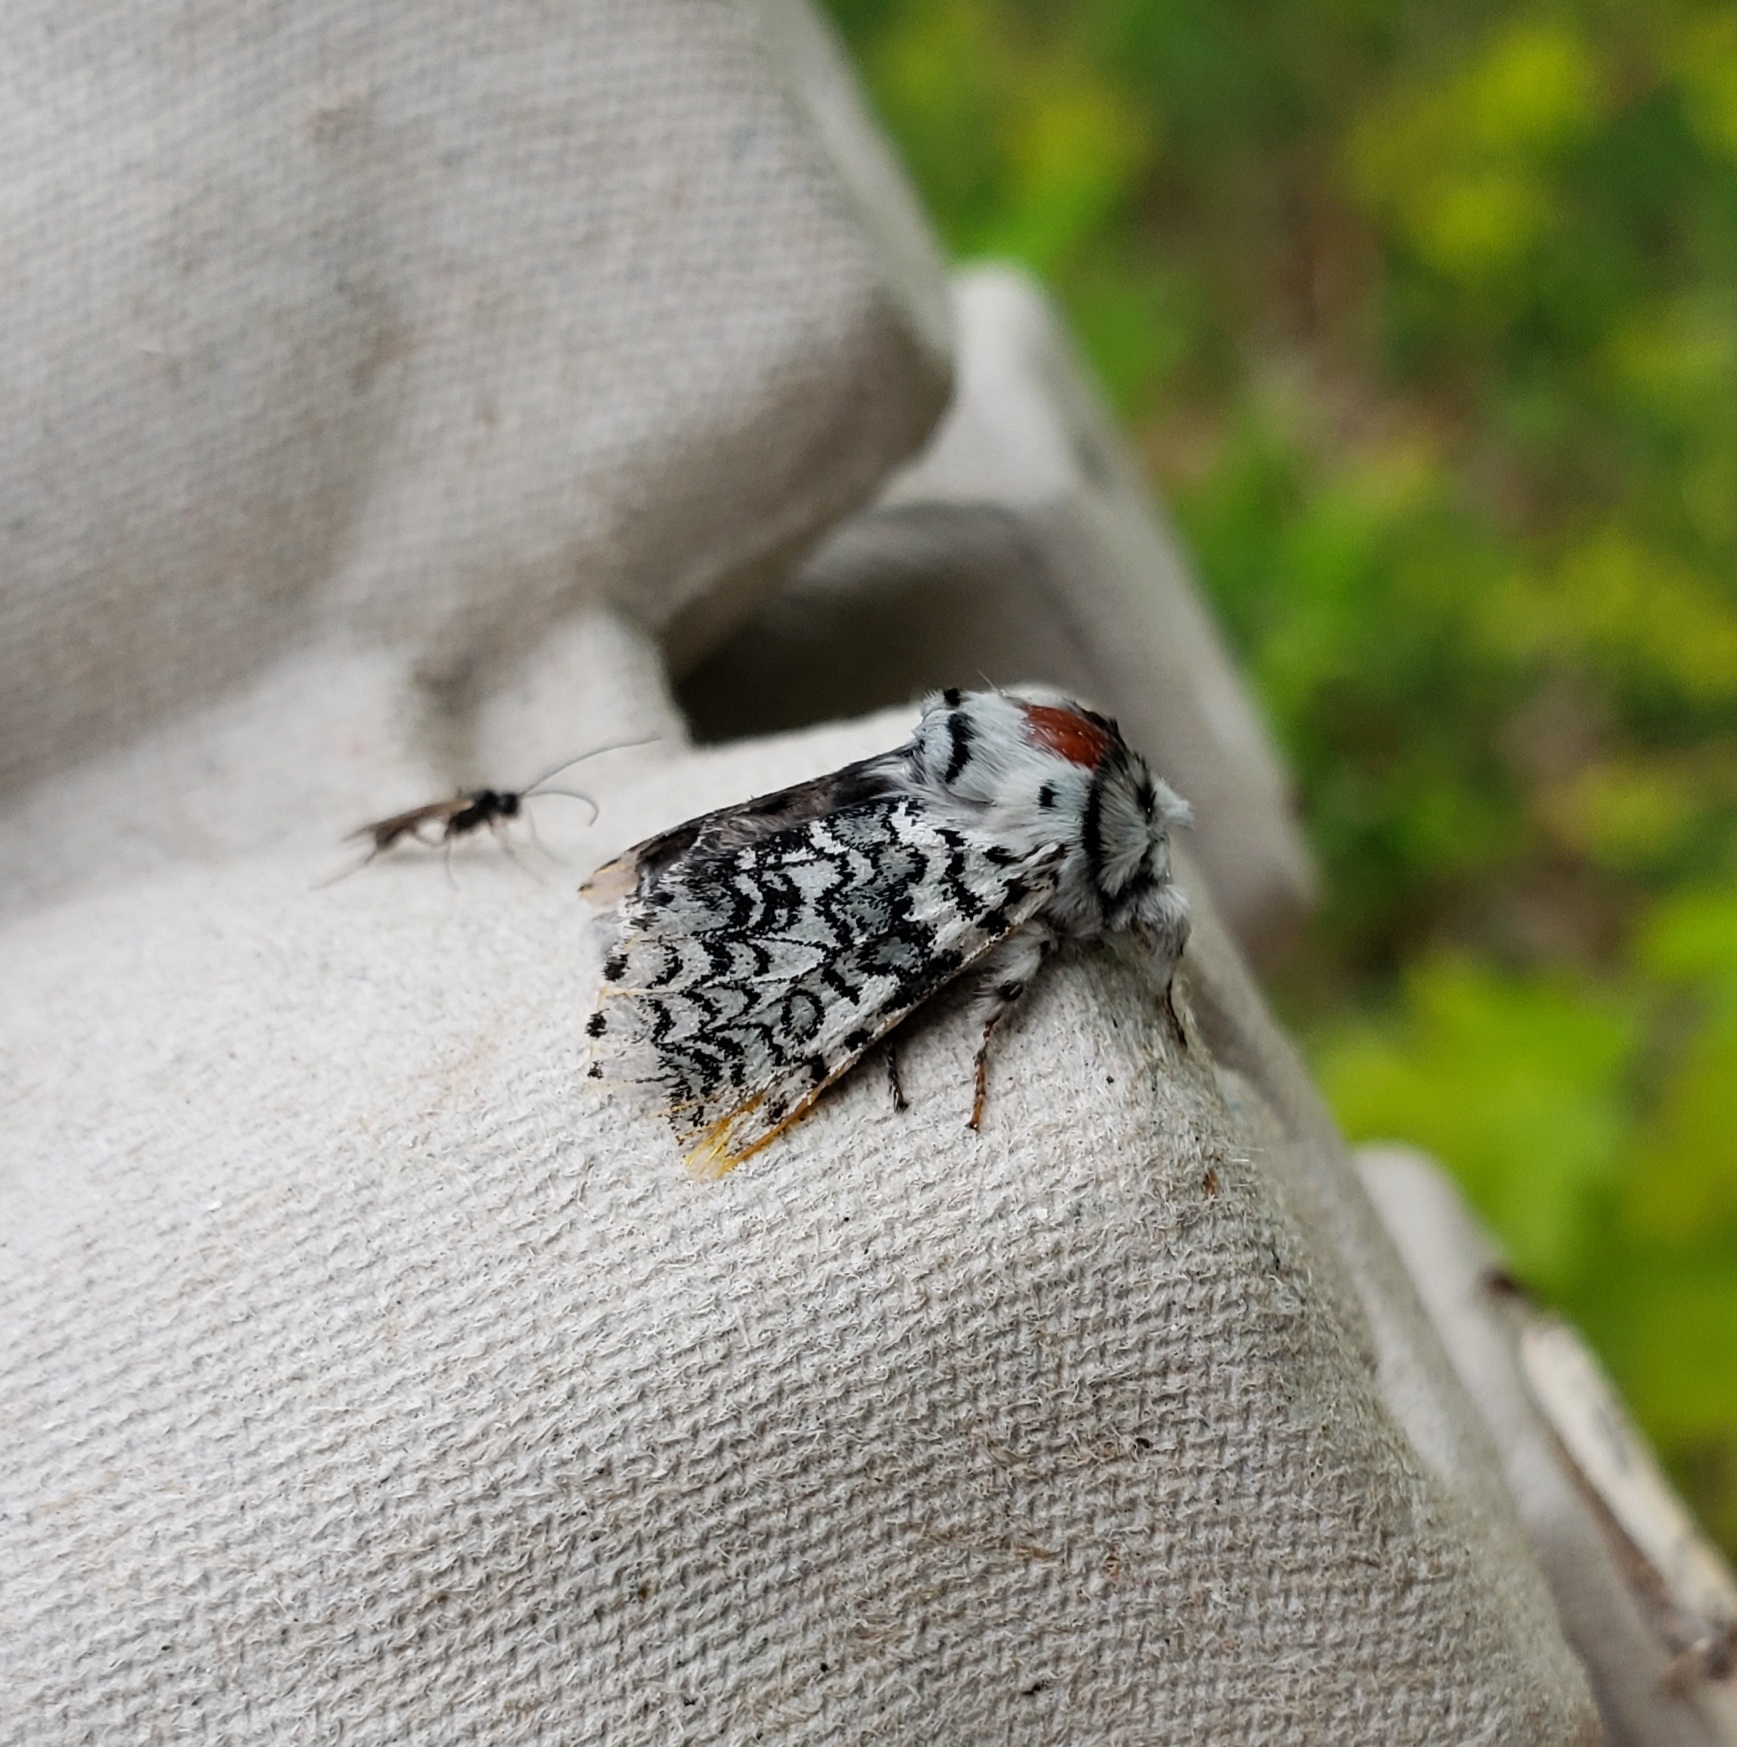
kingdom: Animalia
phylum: Arthropoda
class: Insecta
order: Lepidoptera
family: Notodontidae
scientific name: Notodontidae
